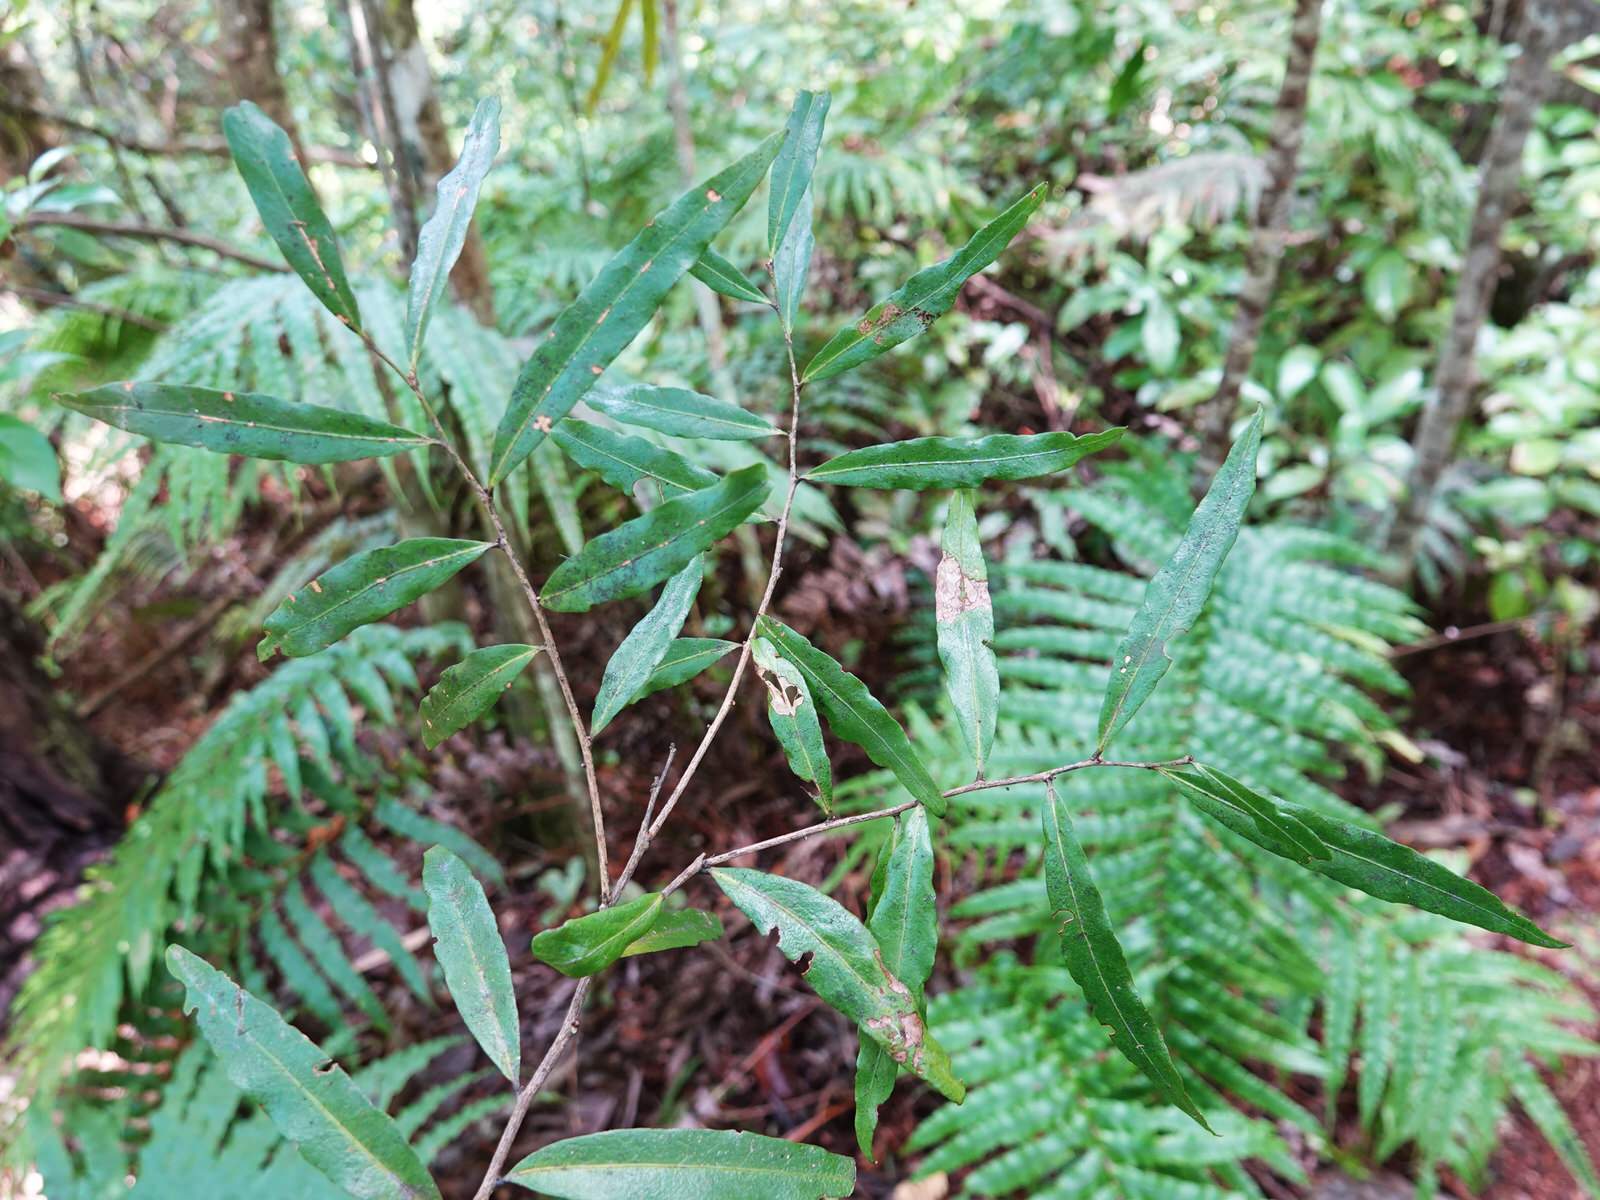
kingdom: Plantae
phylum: Tracheophyta
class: Magnoliopsida
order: Santalales
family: Nanodeaceae
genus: Mida
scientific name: Mida salicifolia
